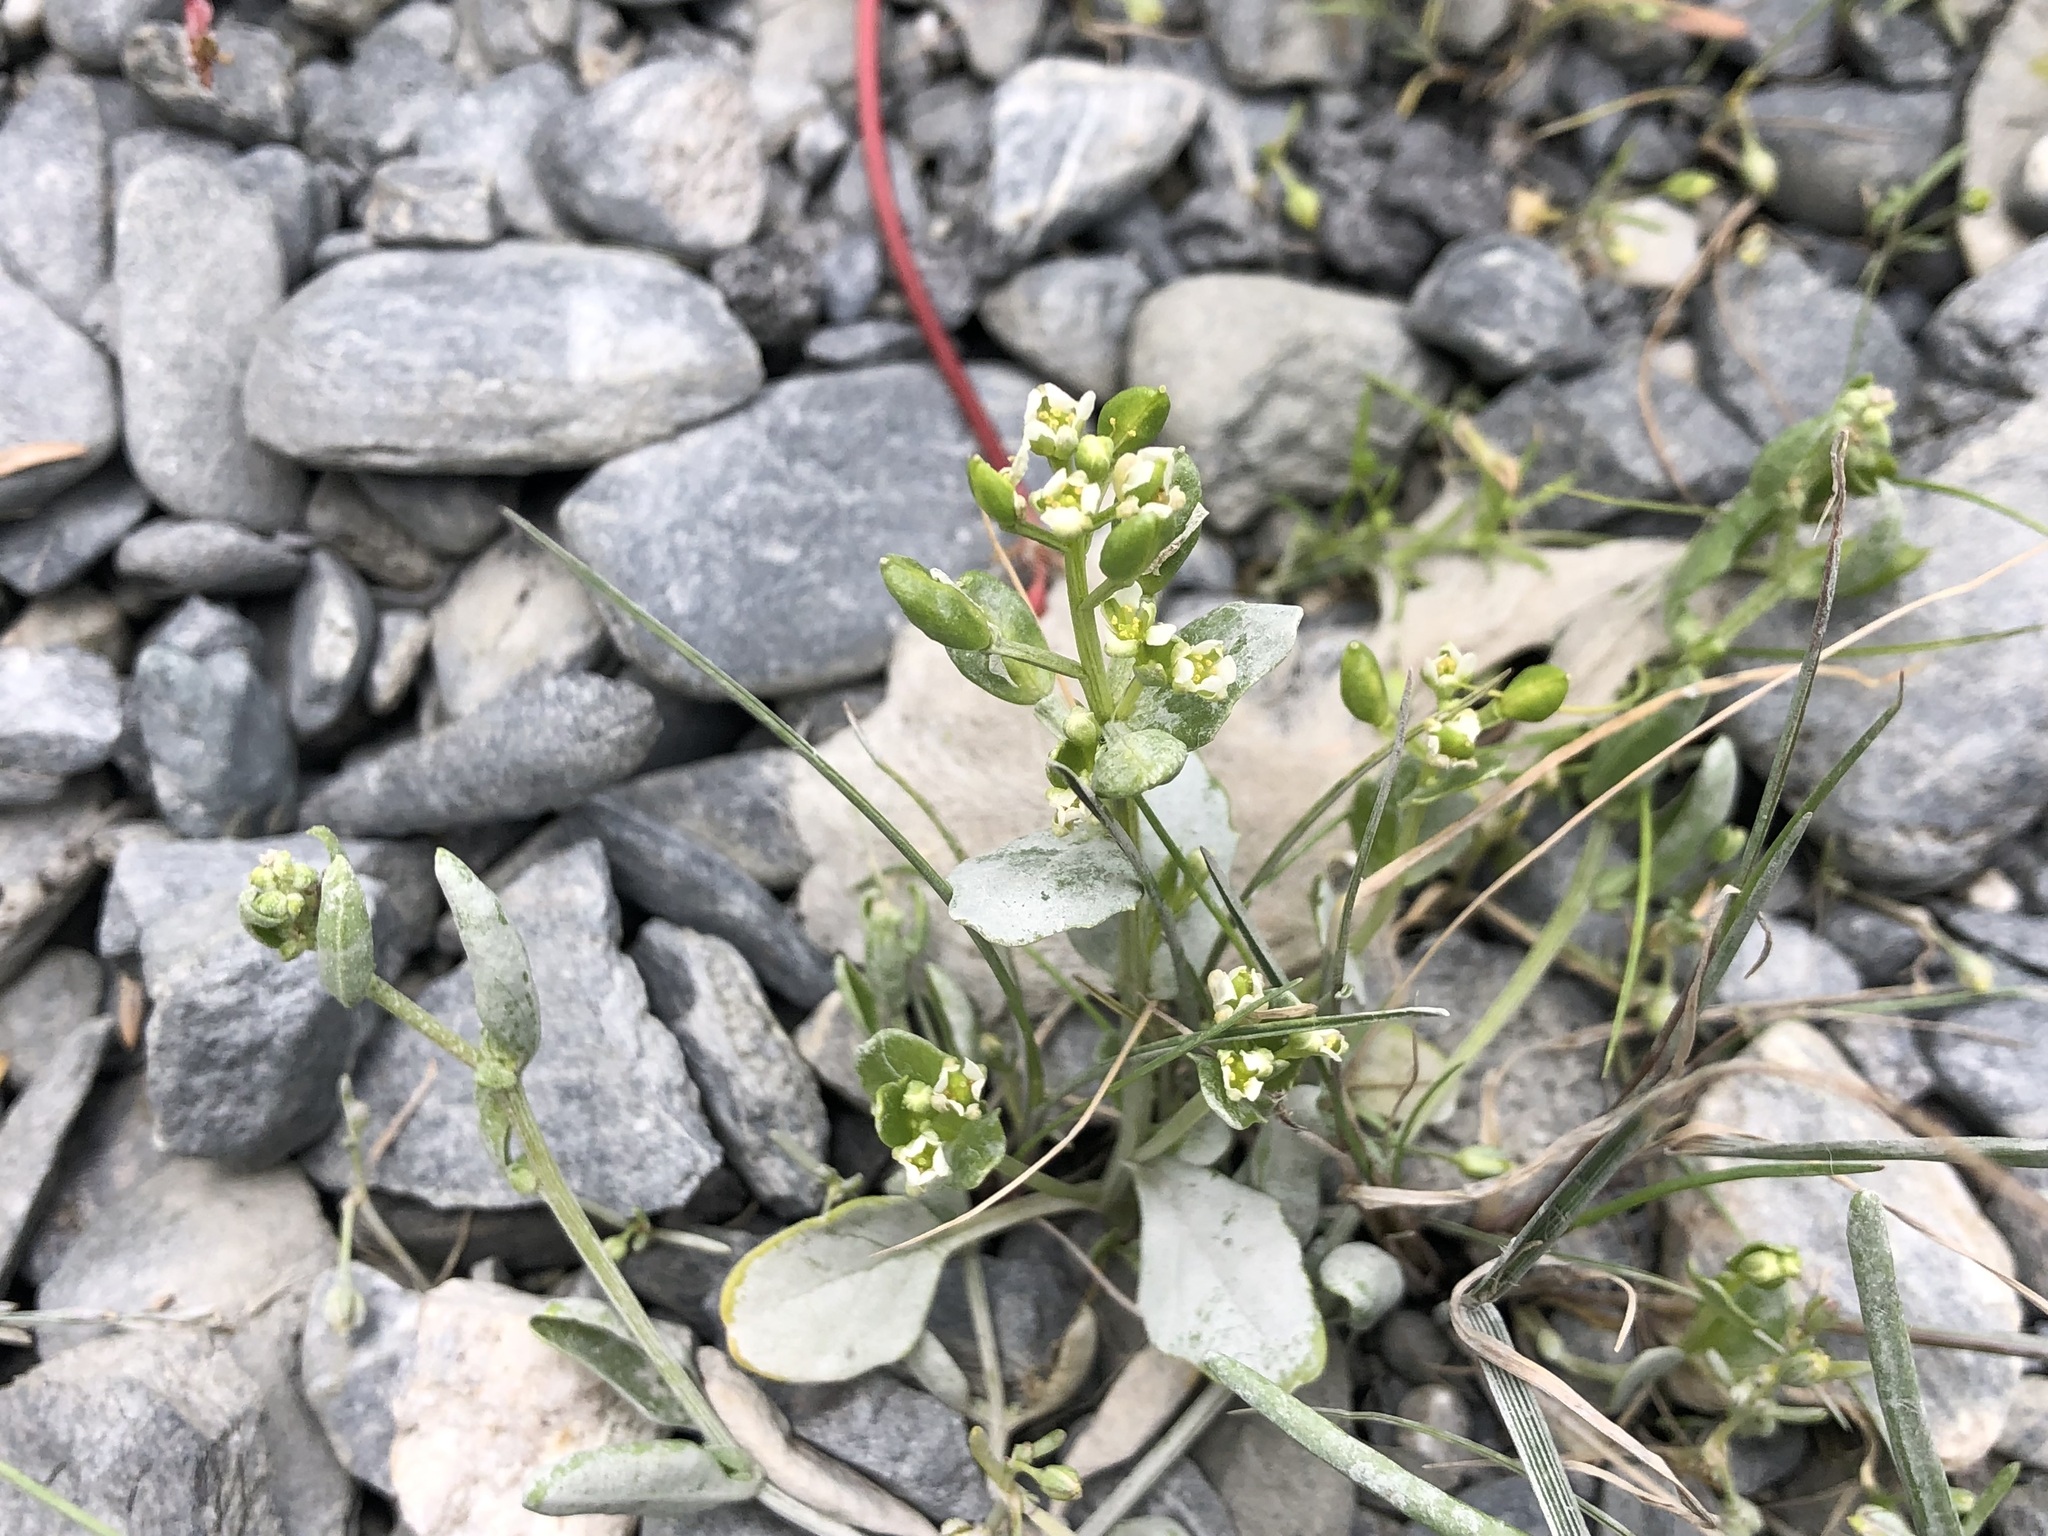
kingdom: Plantae
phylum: Tracheophyta
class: Magnoliopsida
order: Brassicales
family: Brassicaceae
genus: Cochlearia
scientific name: Cochlearia groenlandica
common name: Danish scurvygrass
